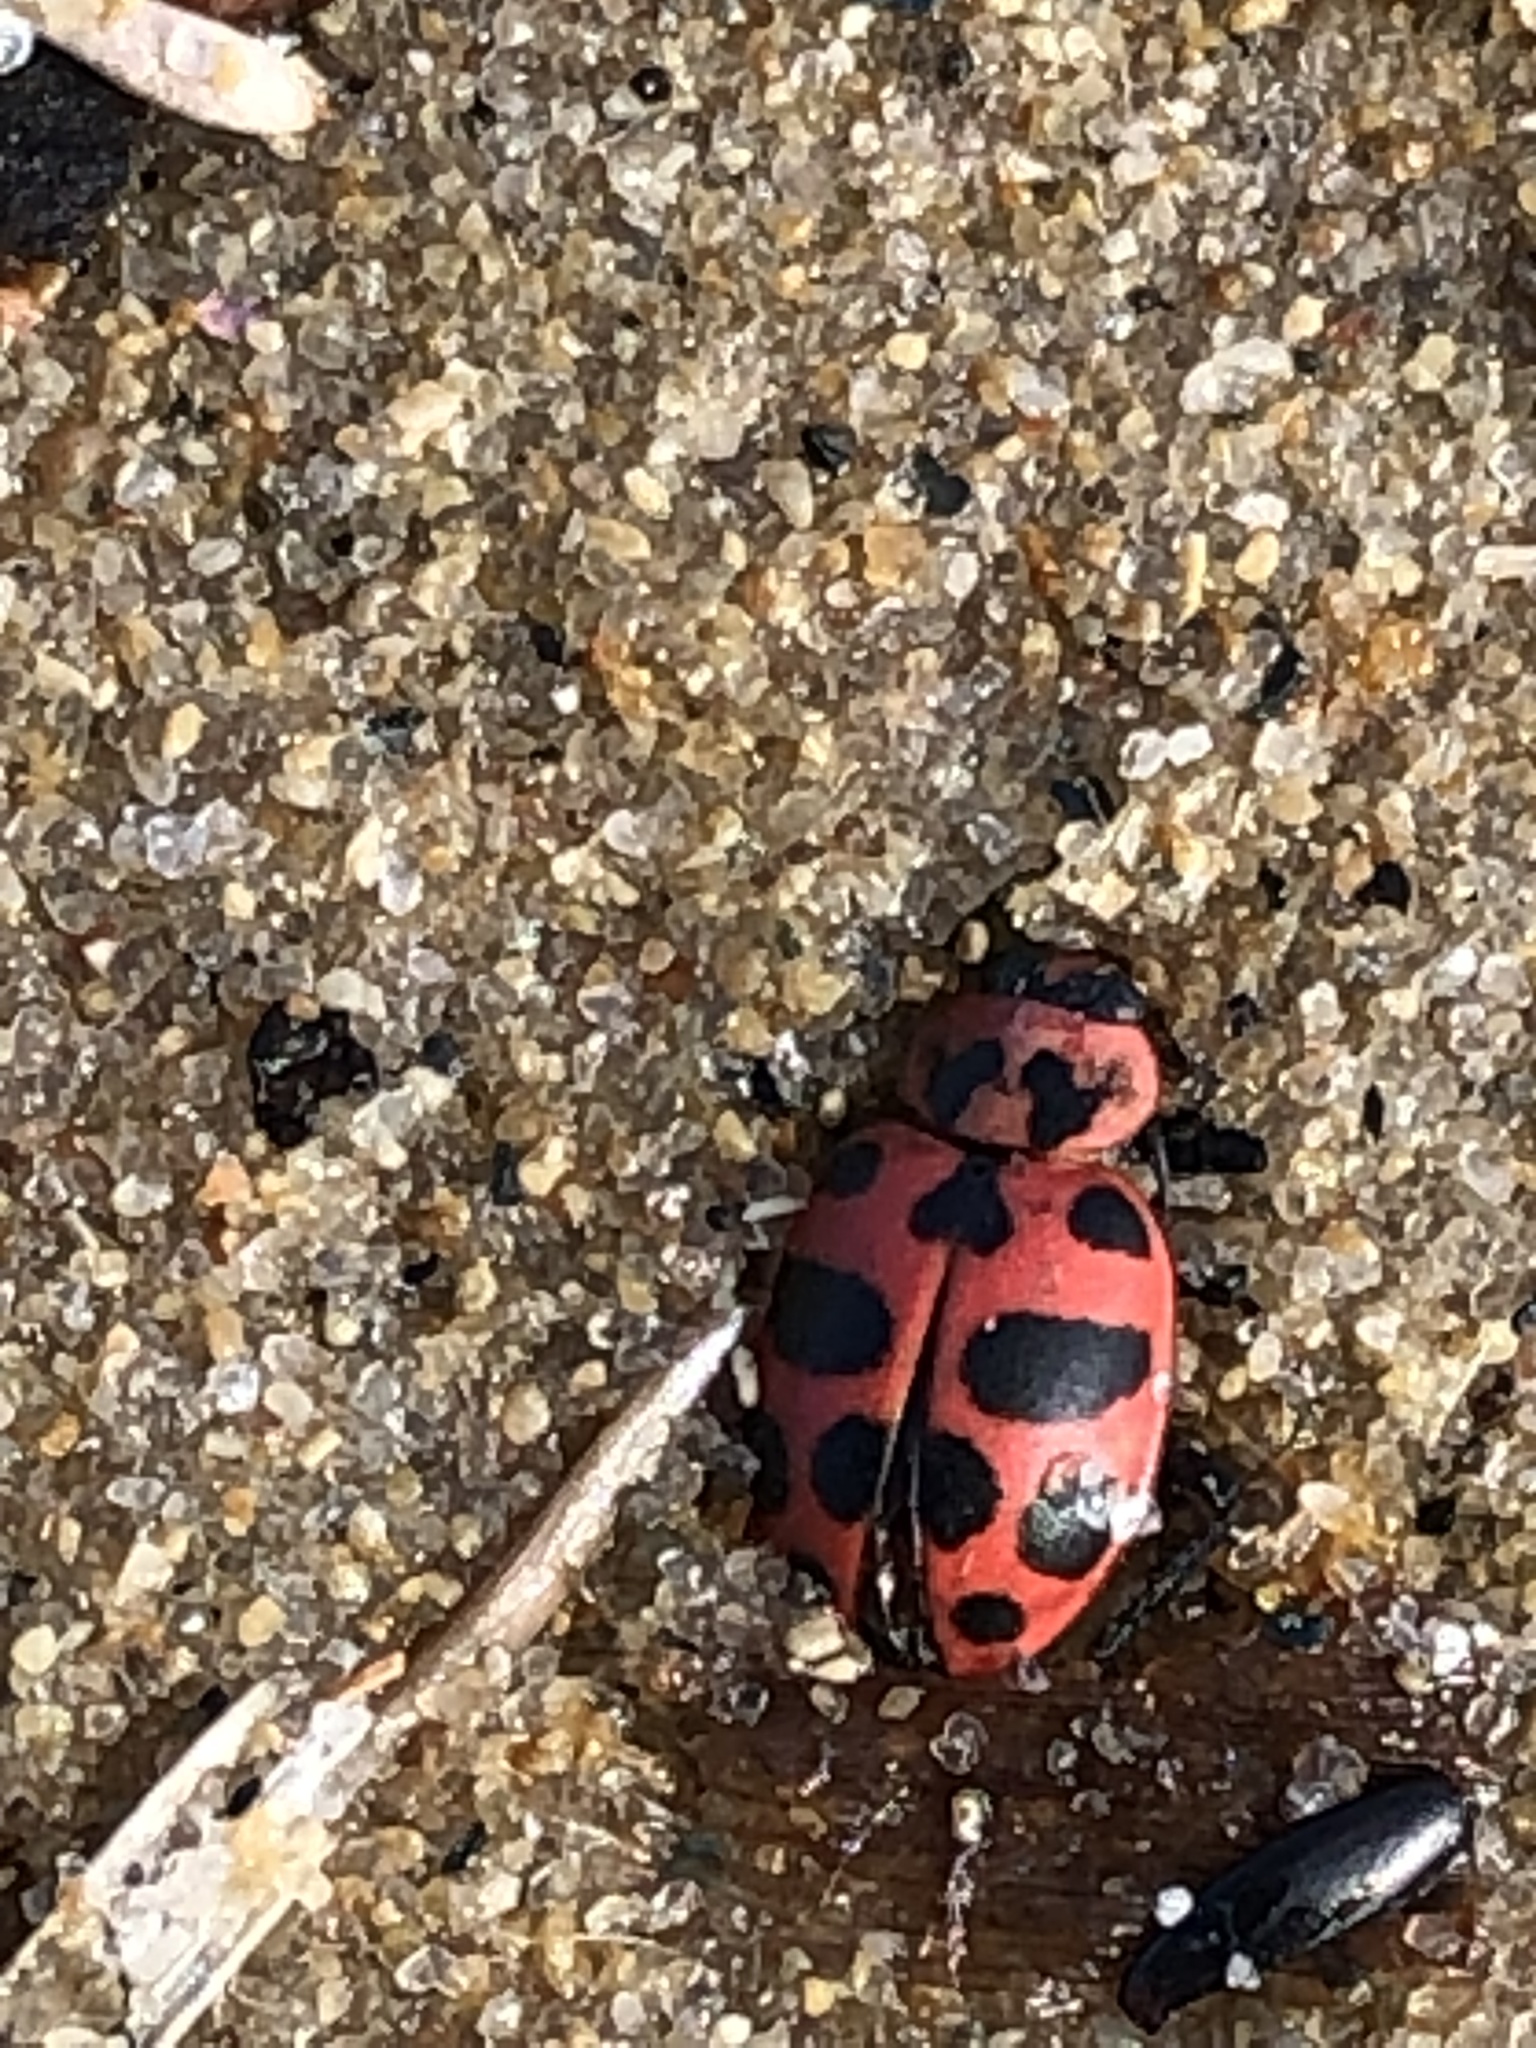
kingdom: Animalia
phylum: Arthropoda
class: Insecta
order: Coleoptera
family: Coccinellidae
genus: Coleomegilla
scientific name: Coleomegilla maculata
